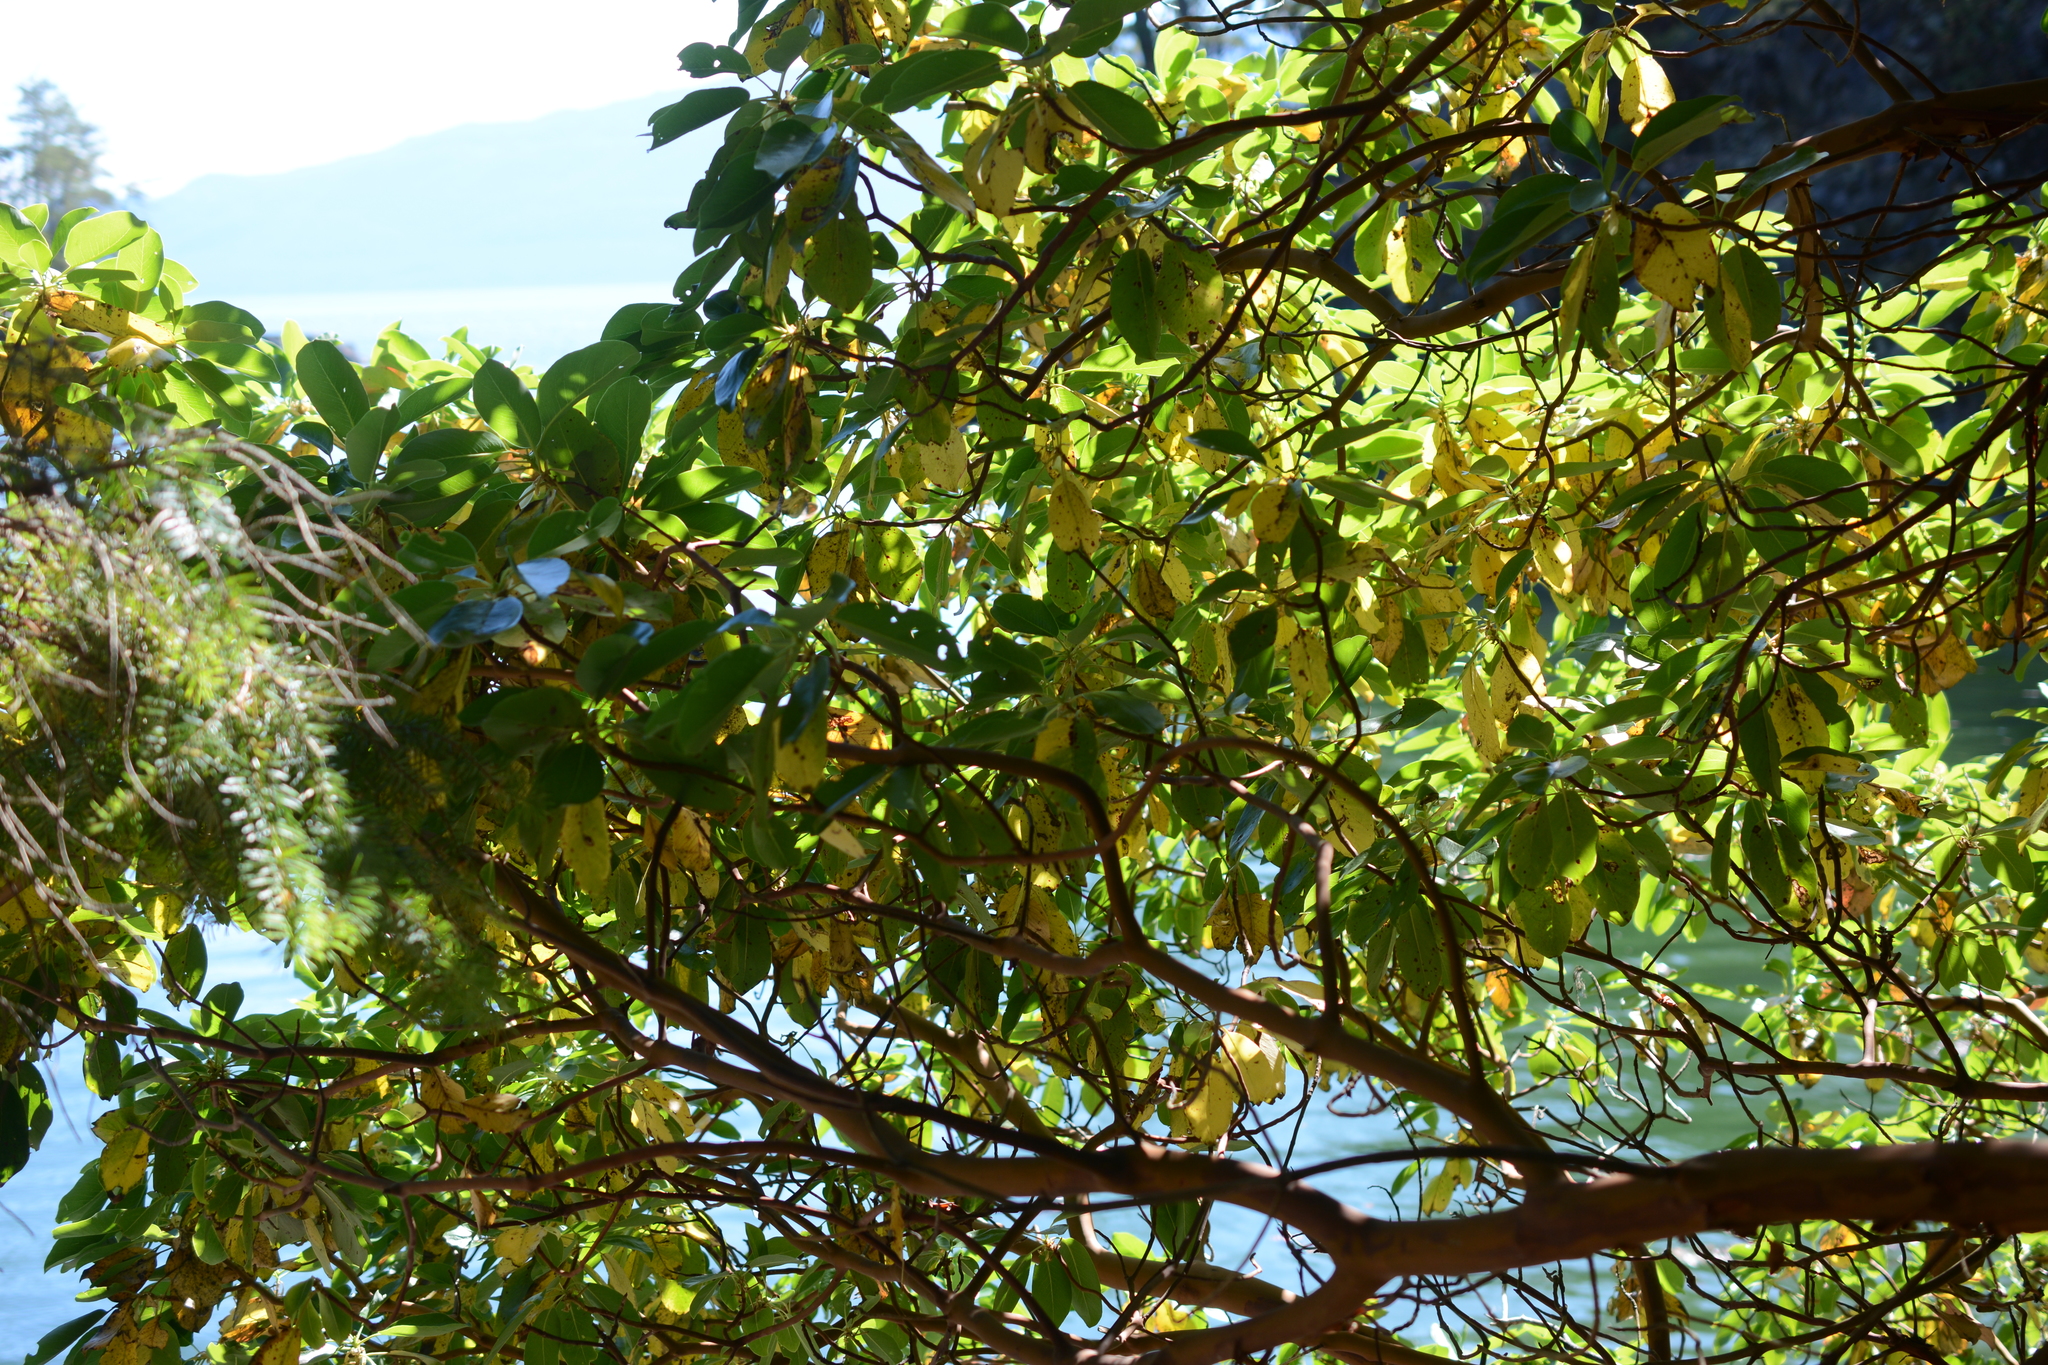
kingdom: Plantae
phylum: Tracheophyta
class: Magnoliopsida
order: Ericales
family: Ericaceae
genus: Arbutus
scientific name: Arbutus menziesii
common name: Pacific madrone
